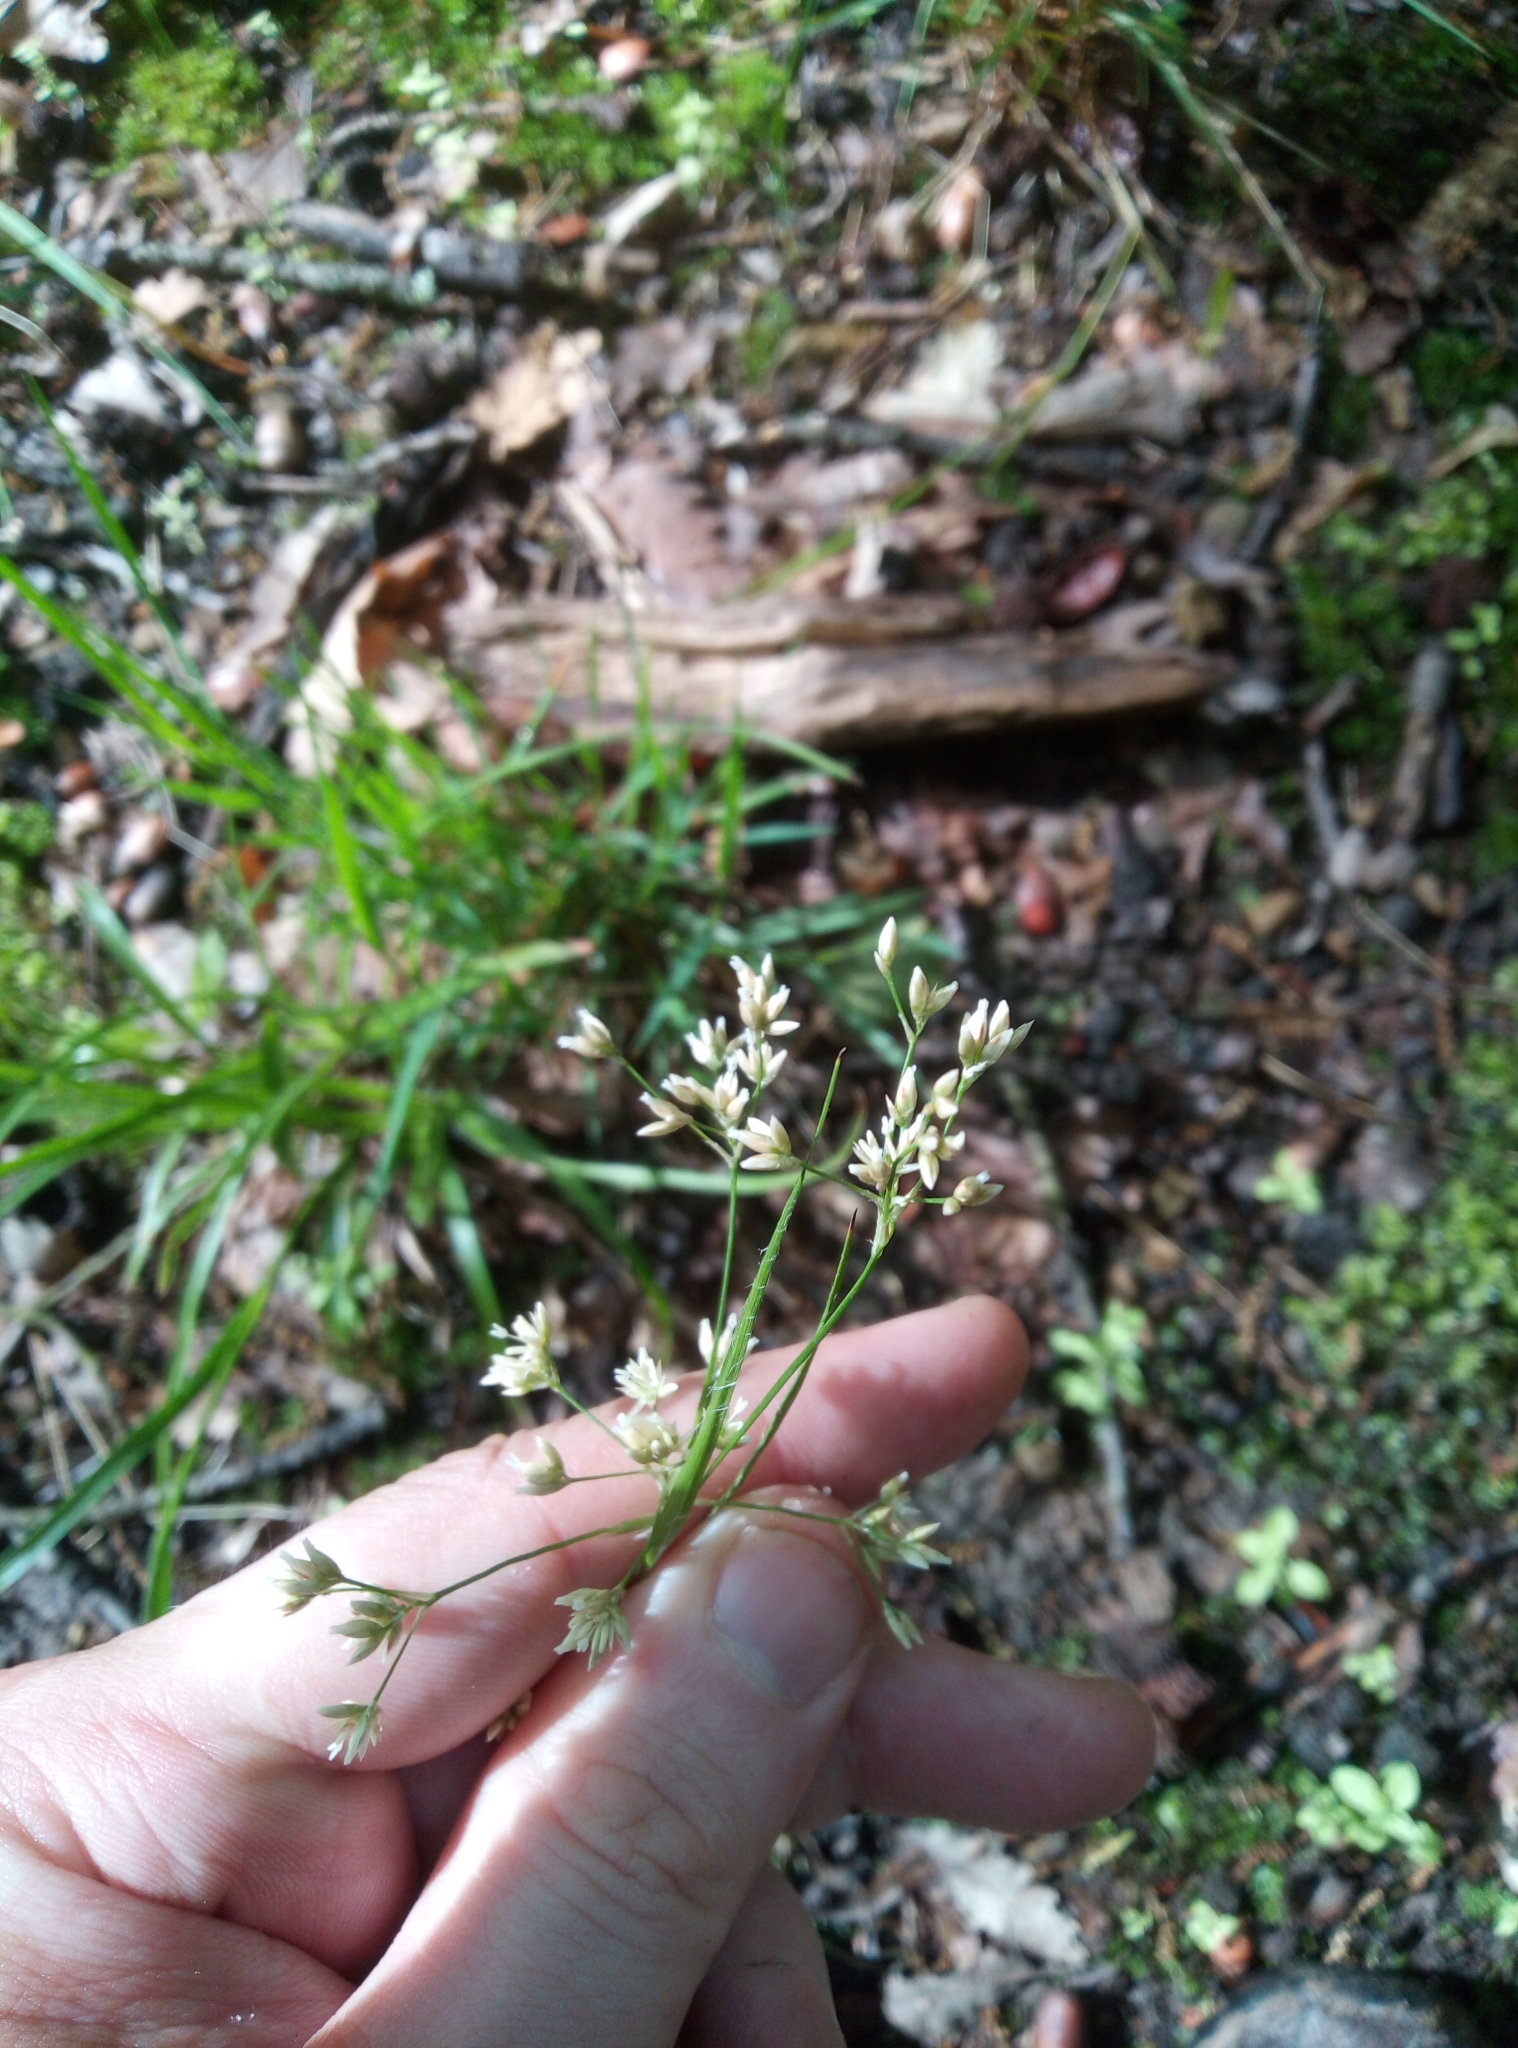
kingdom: Plantae
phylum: Tracheophyta
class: Liliopsida
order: Poales
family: Juncaceae
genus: Luzula
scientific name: Luzula luzuloides
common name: White wood-rush
